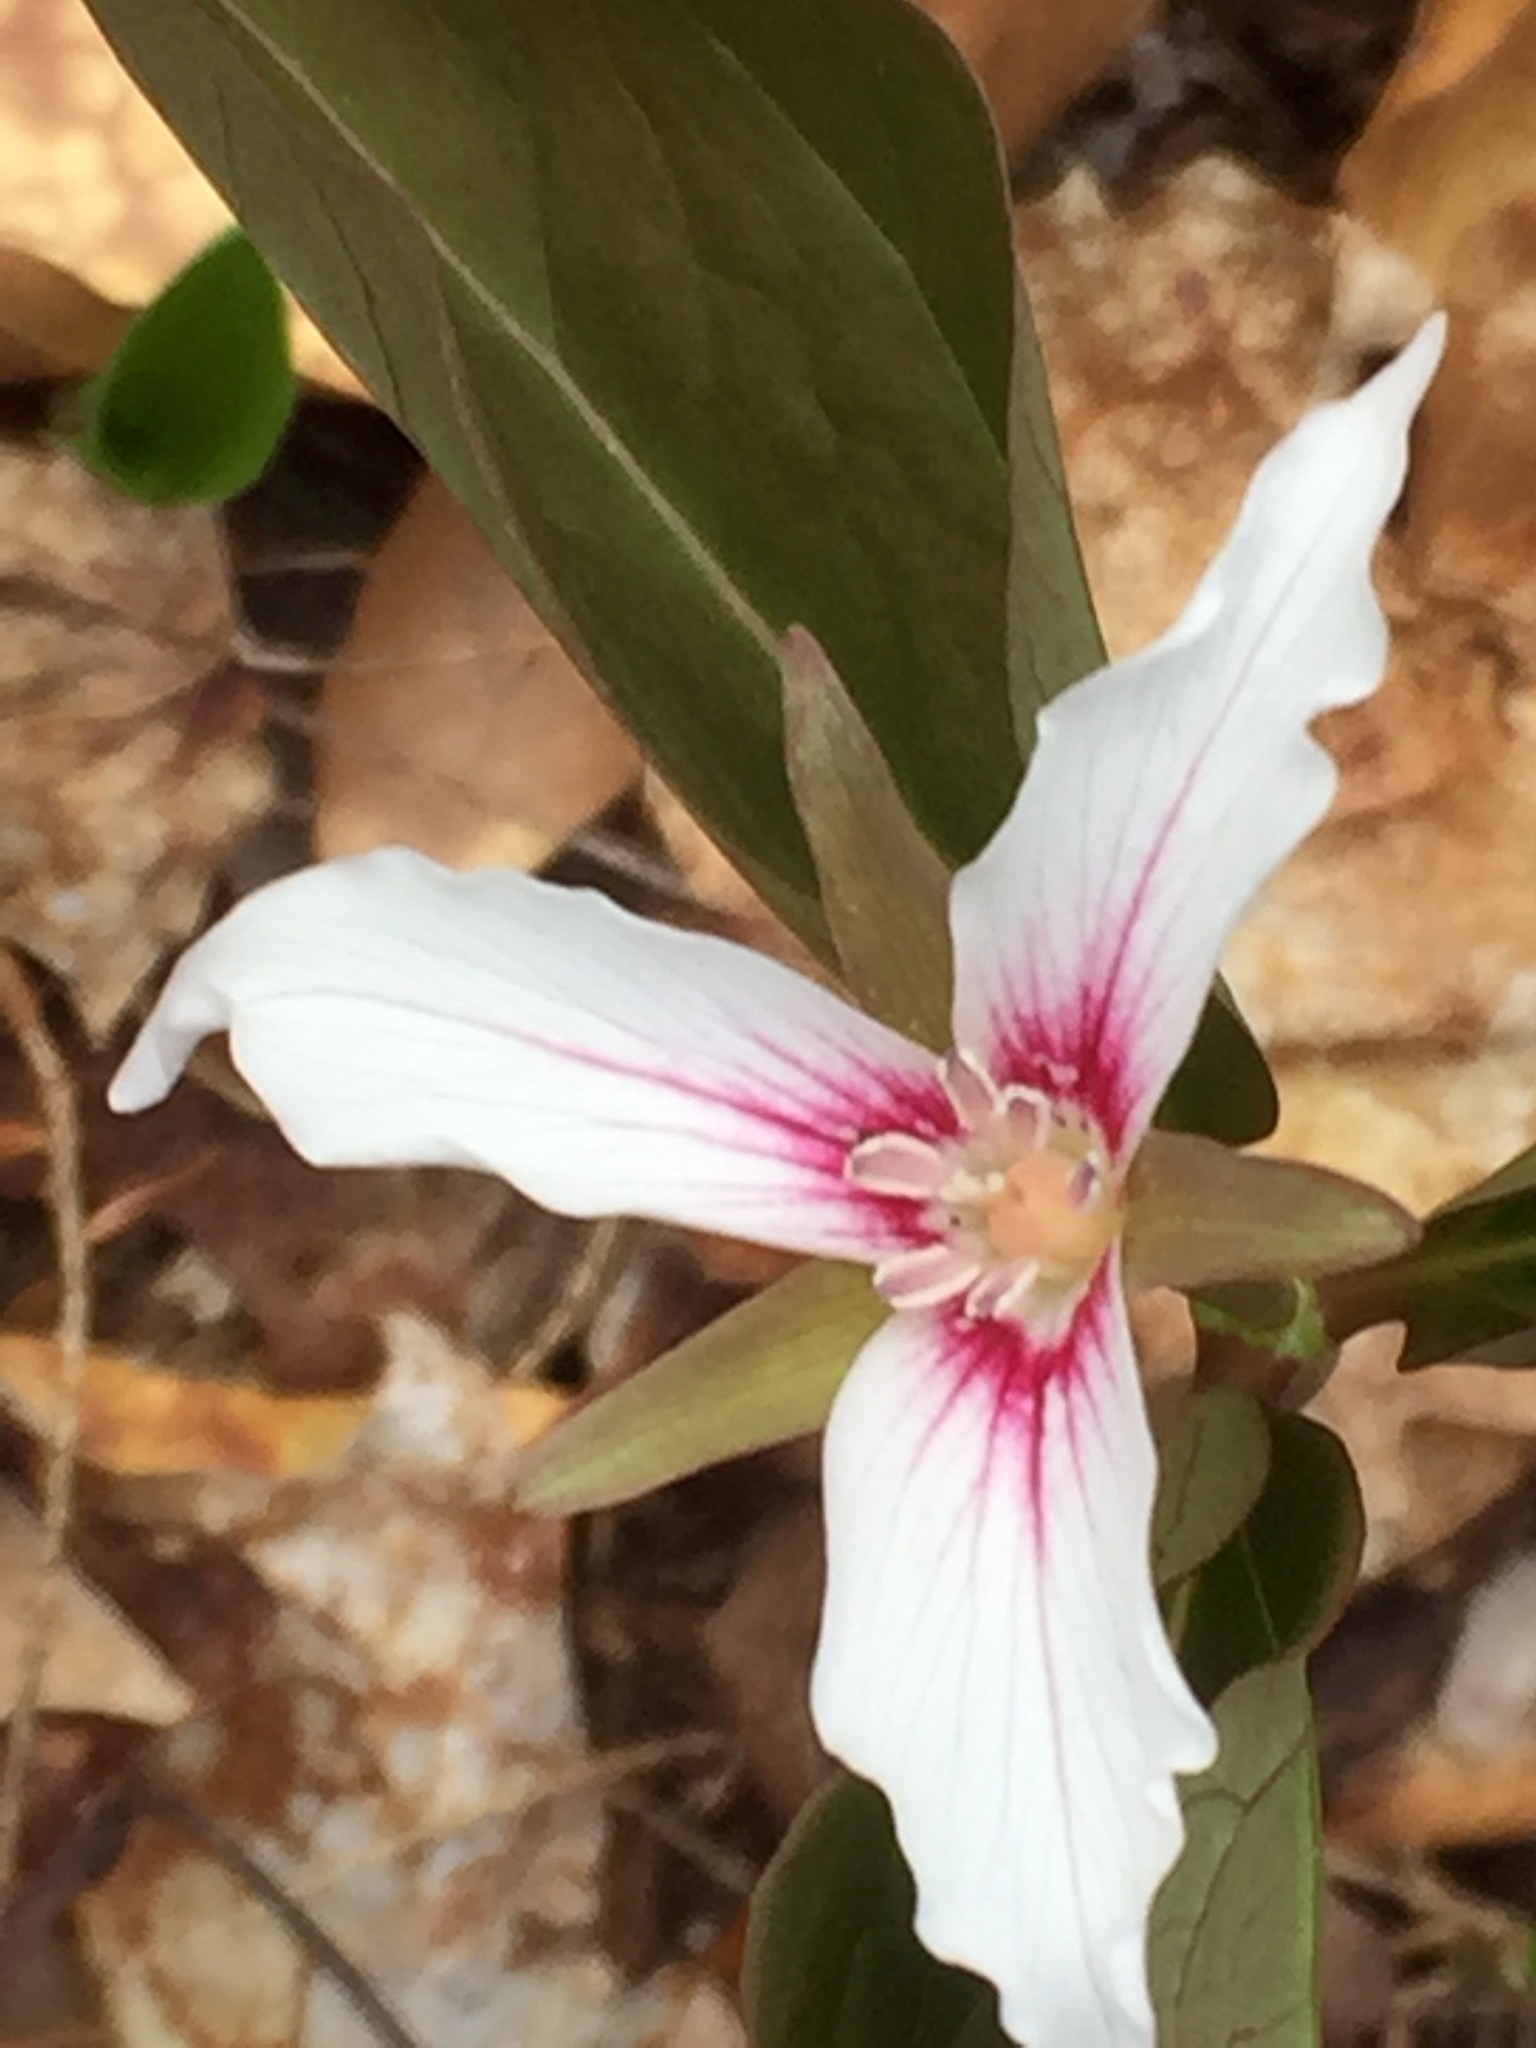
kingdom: Plantae
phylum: Tracheophyta
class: Liliopsida
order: Liliales
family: Melanthiaceae
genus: Trillium
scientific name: Trillium undulatum
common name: Paint trillium
